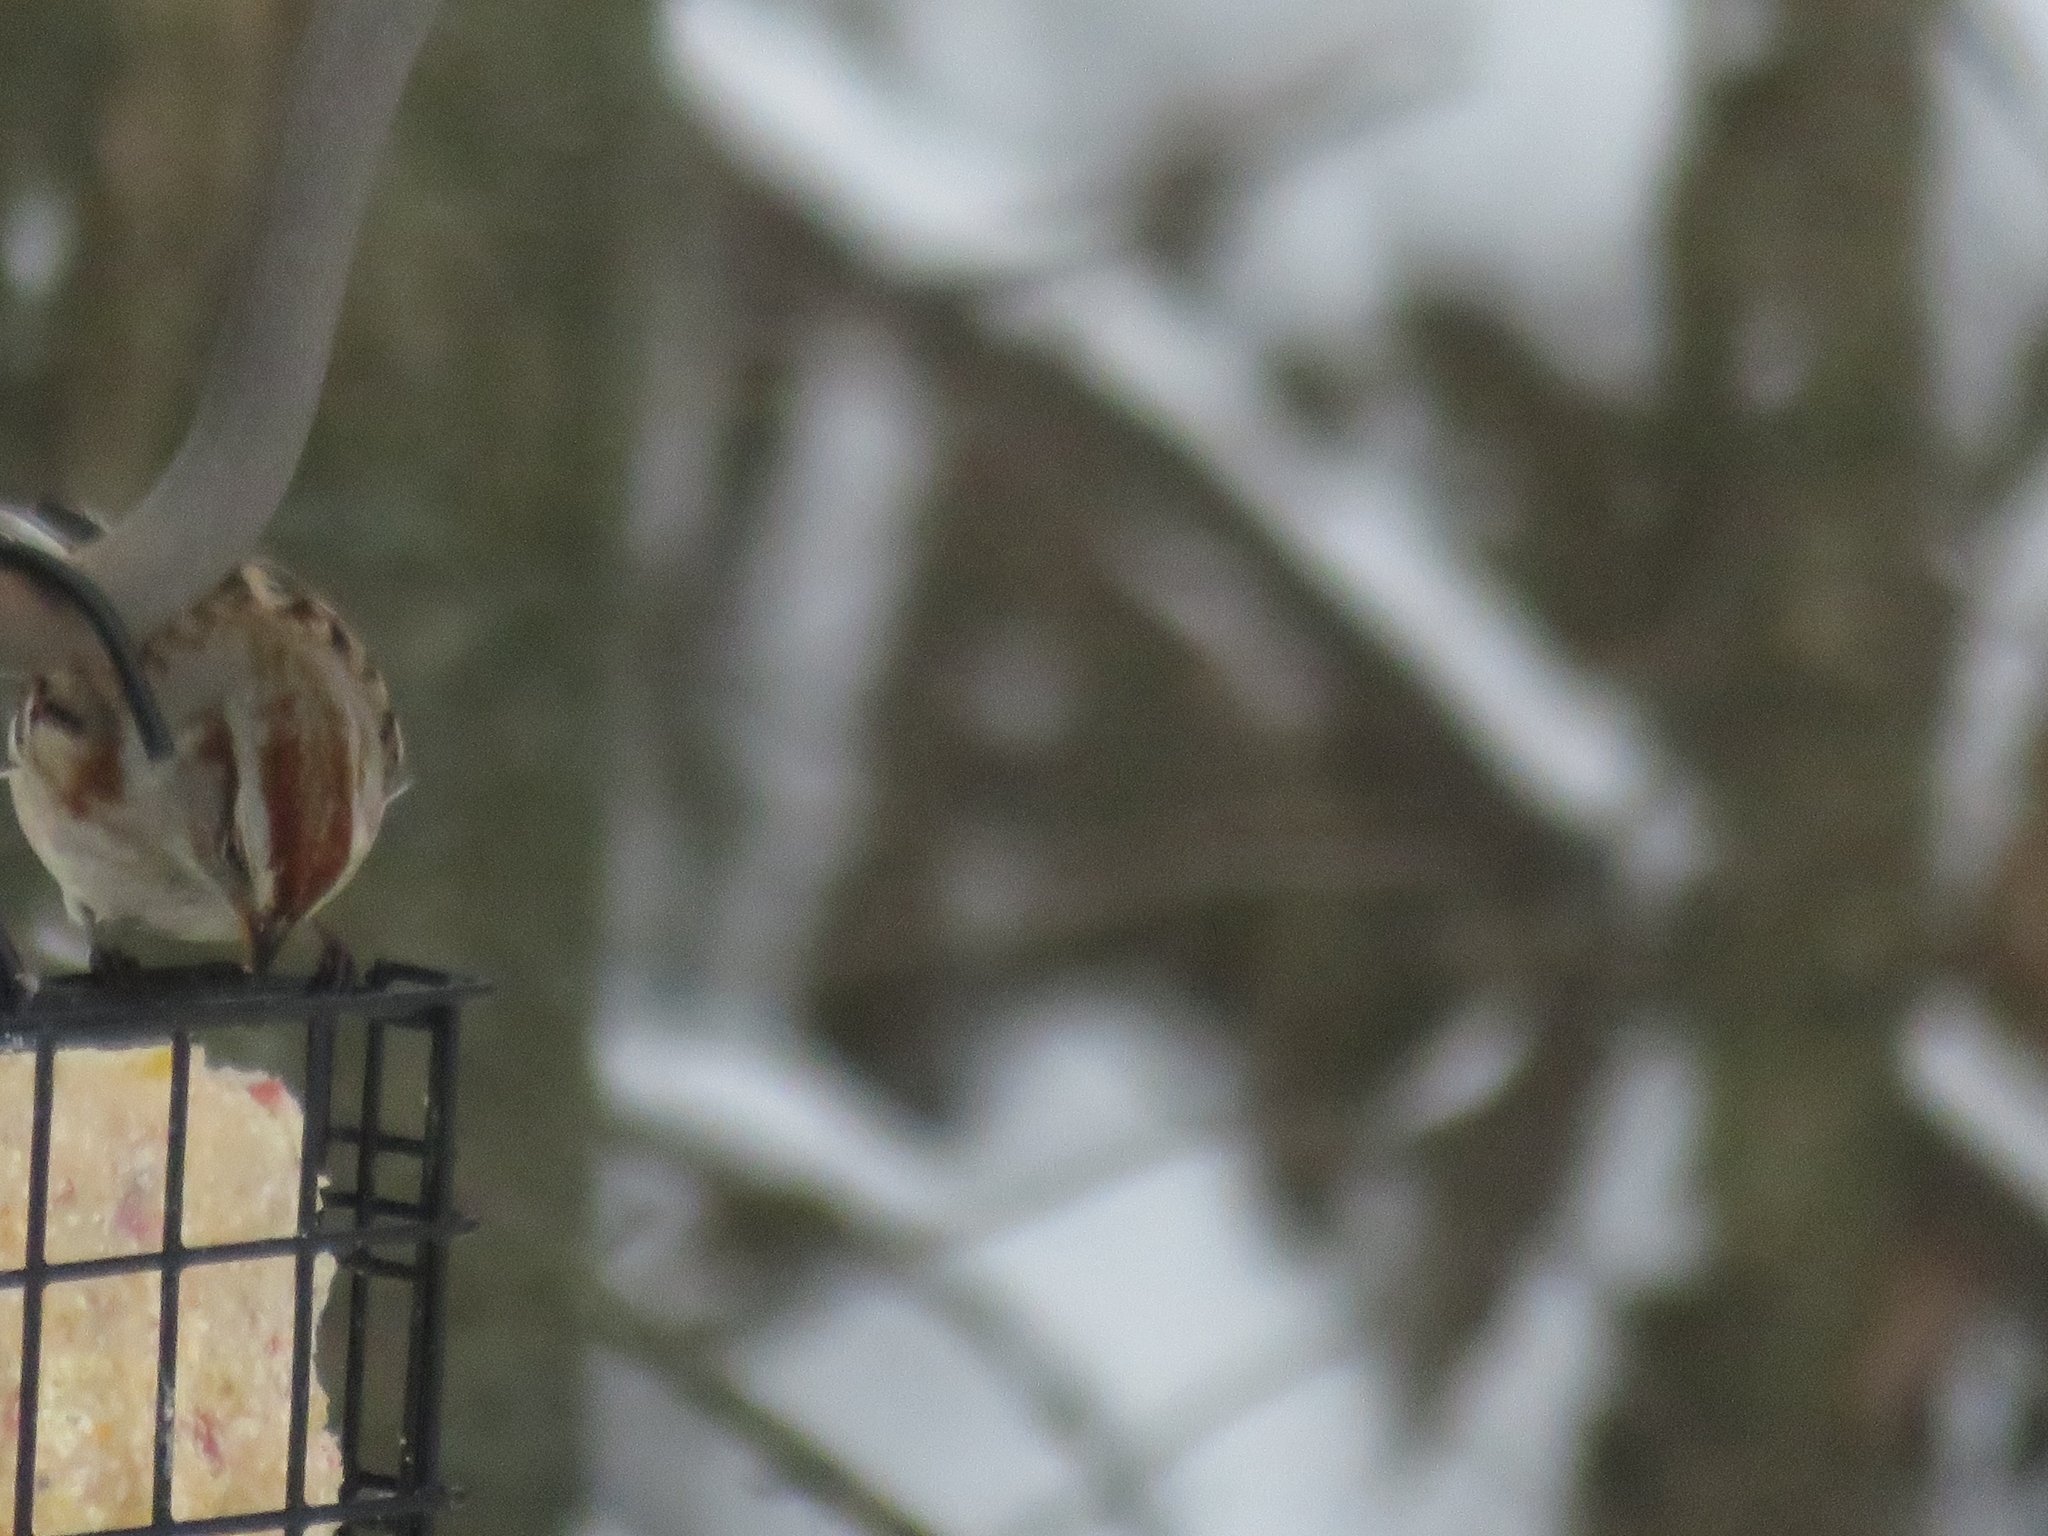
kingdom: Animalia
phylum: Chordata
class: Aves
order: Passeriformes
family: Passerellidae
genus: Spizelloides
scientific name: Spizelloides arborea
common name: American tree sparrow
